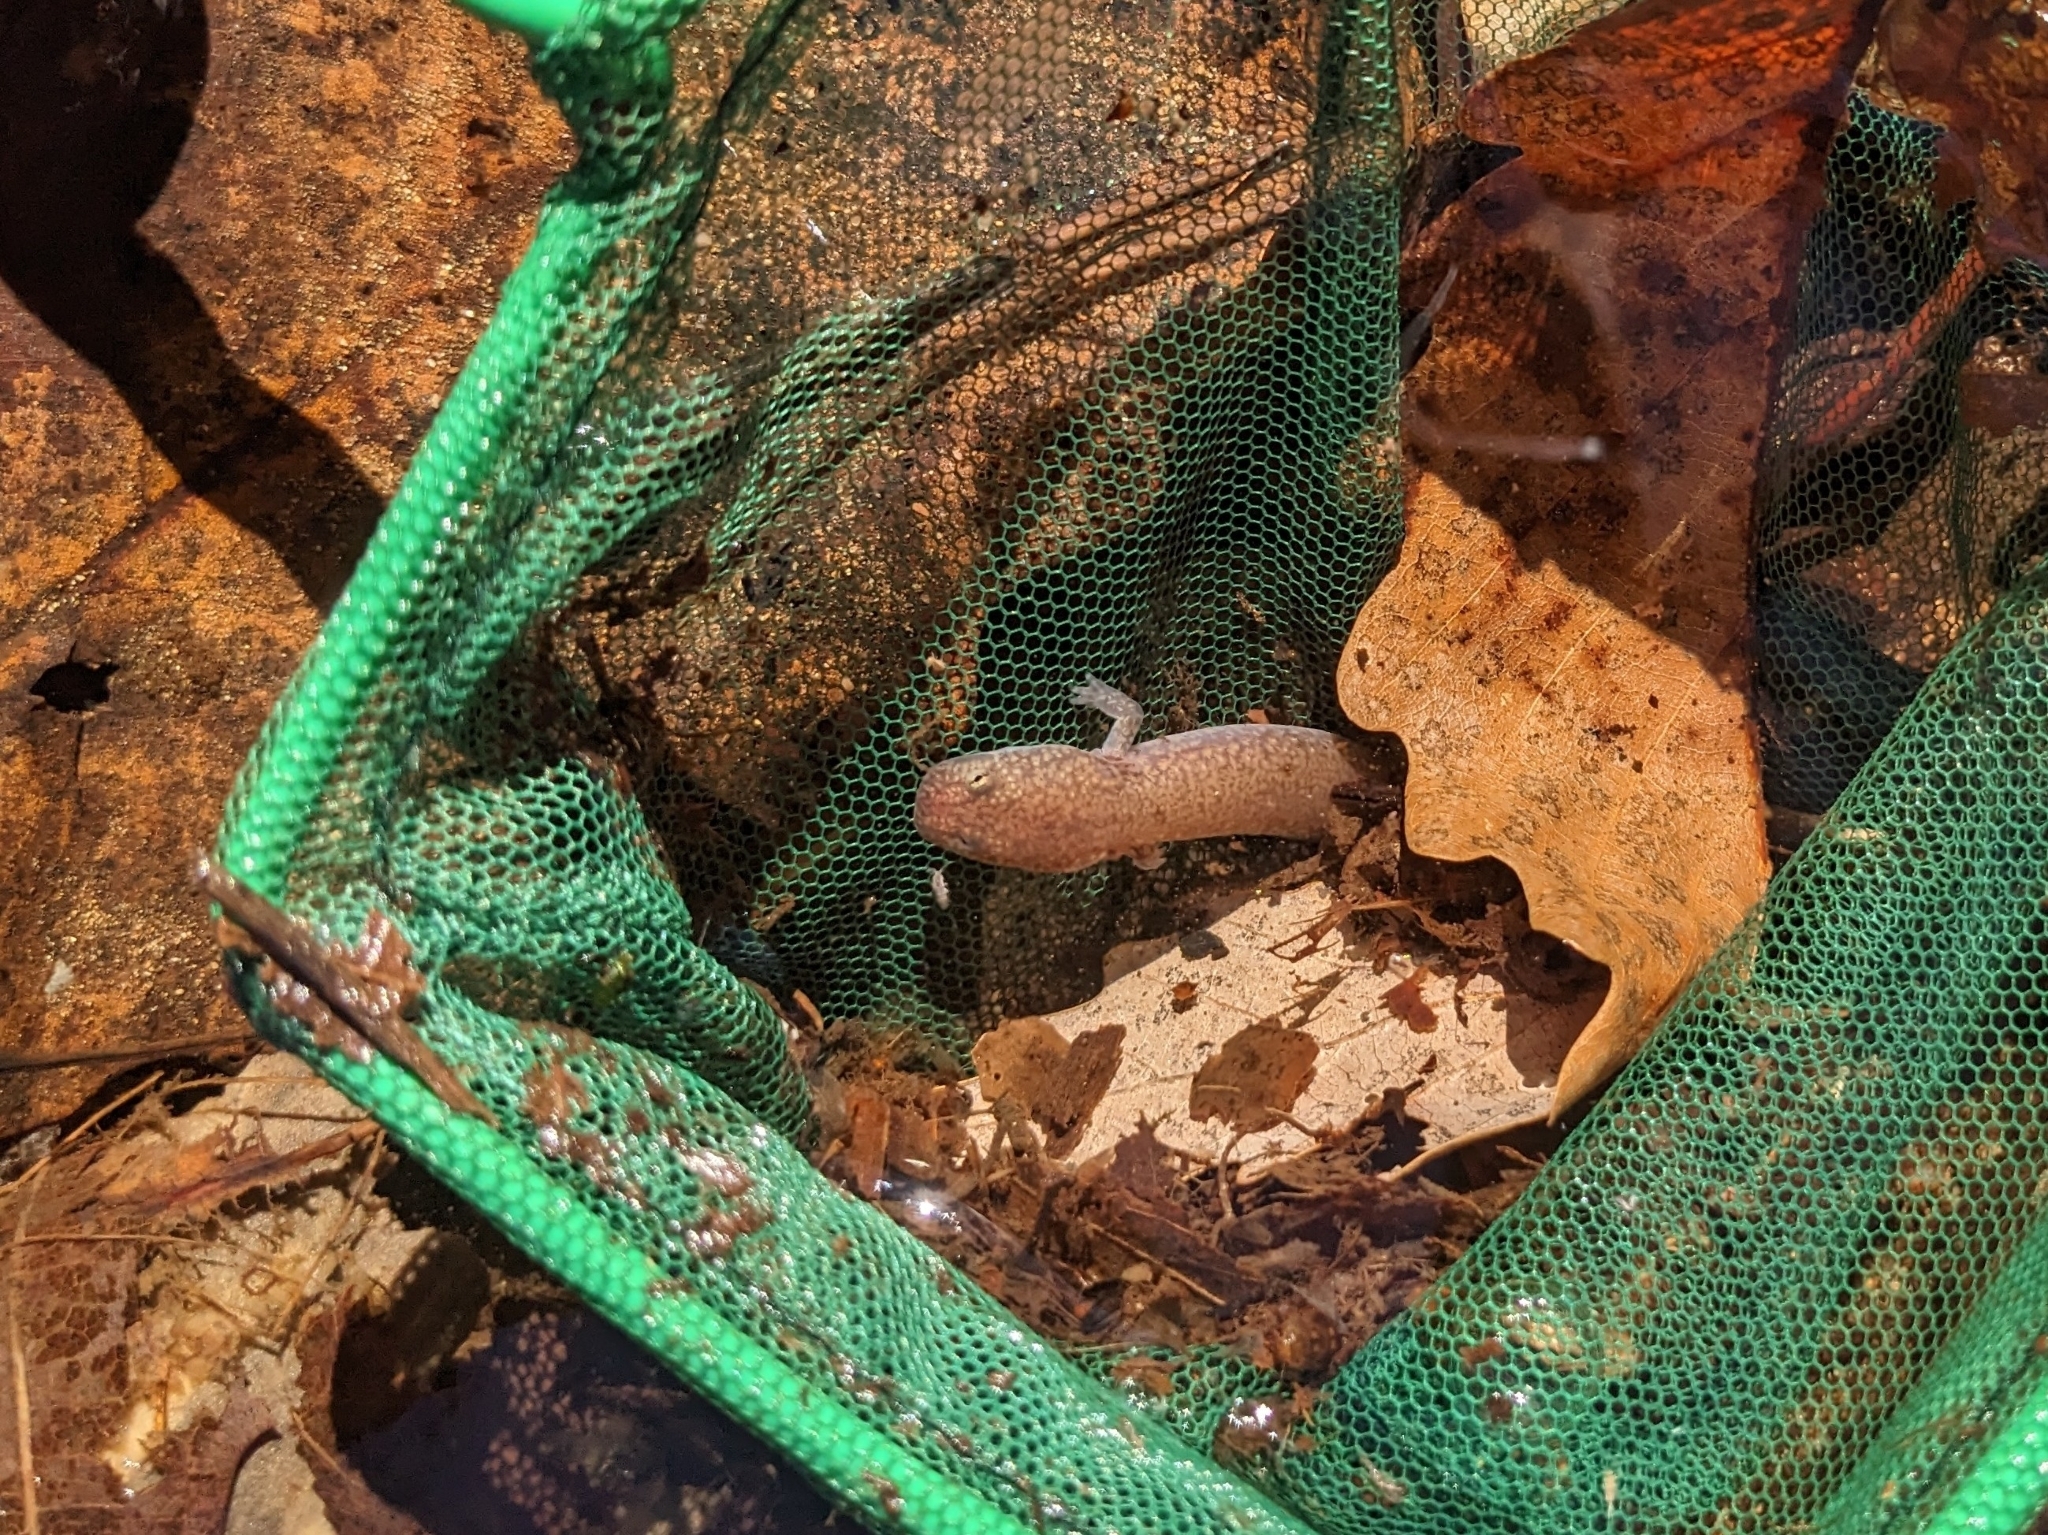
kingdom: Animalia
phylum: Chordata
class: Amphibia
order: Caudata
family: Plethodontidae
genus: Gyrinophilus
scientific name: Gyrinophilus porphyriticus
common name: Spring salamander
